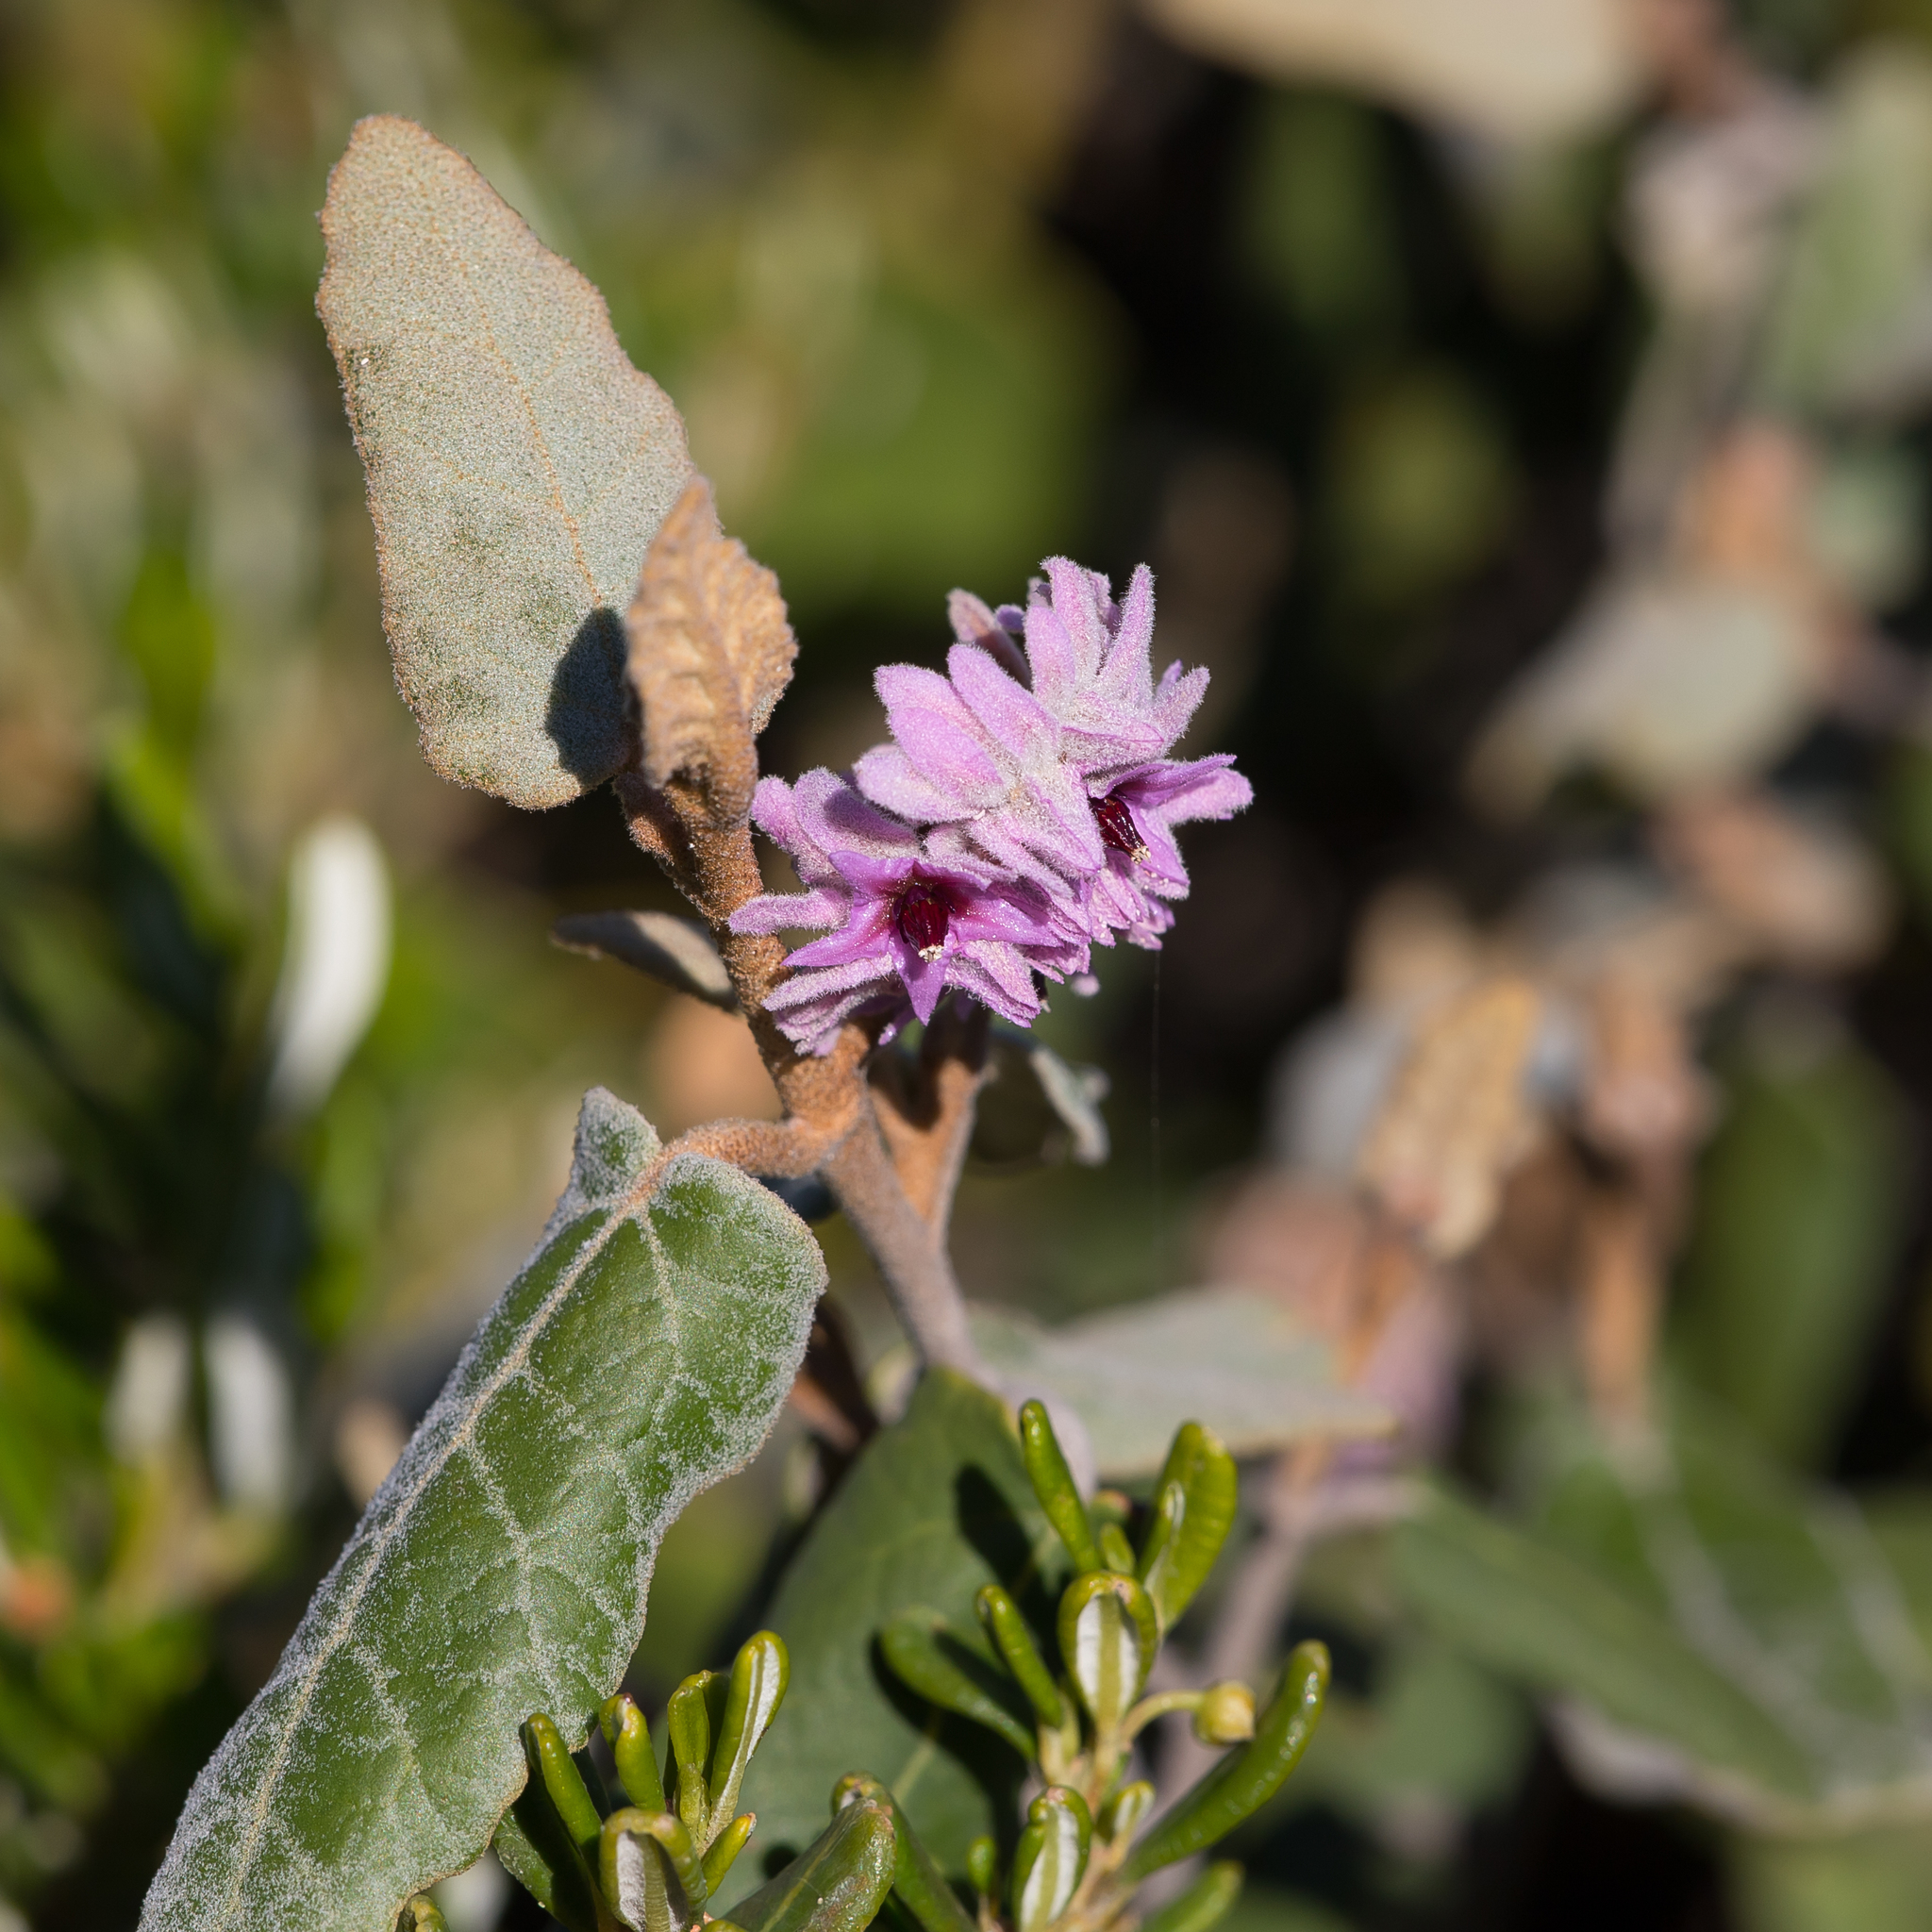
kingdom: Plantae
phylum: Tracheophyta
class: Magnoliopsida
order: Malvales
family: Malvaceae
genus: Lasiopetalum
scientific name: Lasiopetalum discolor
